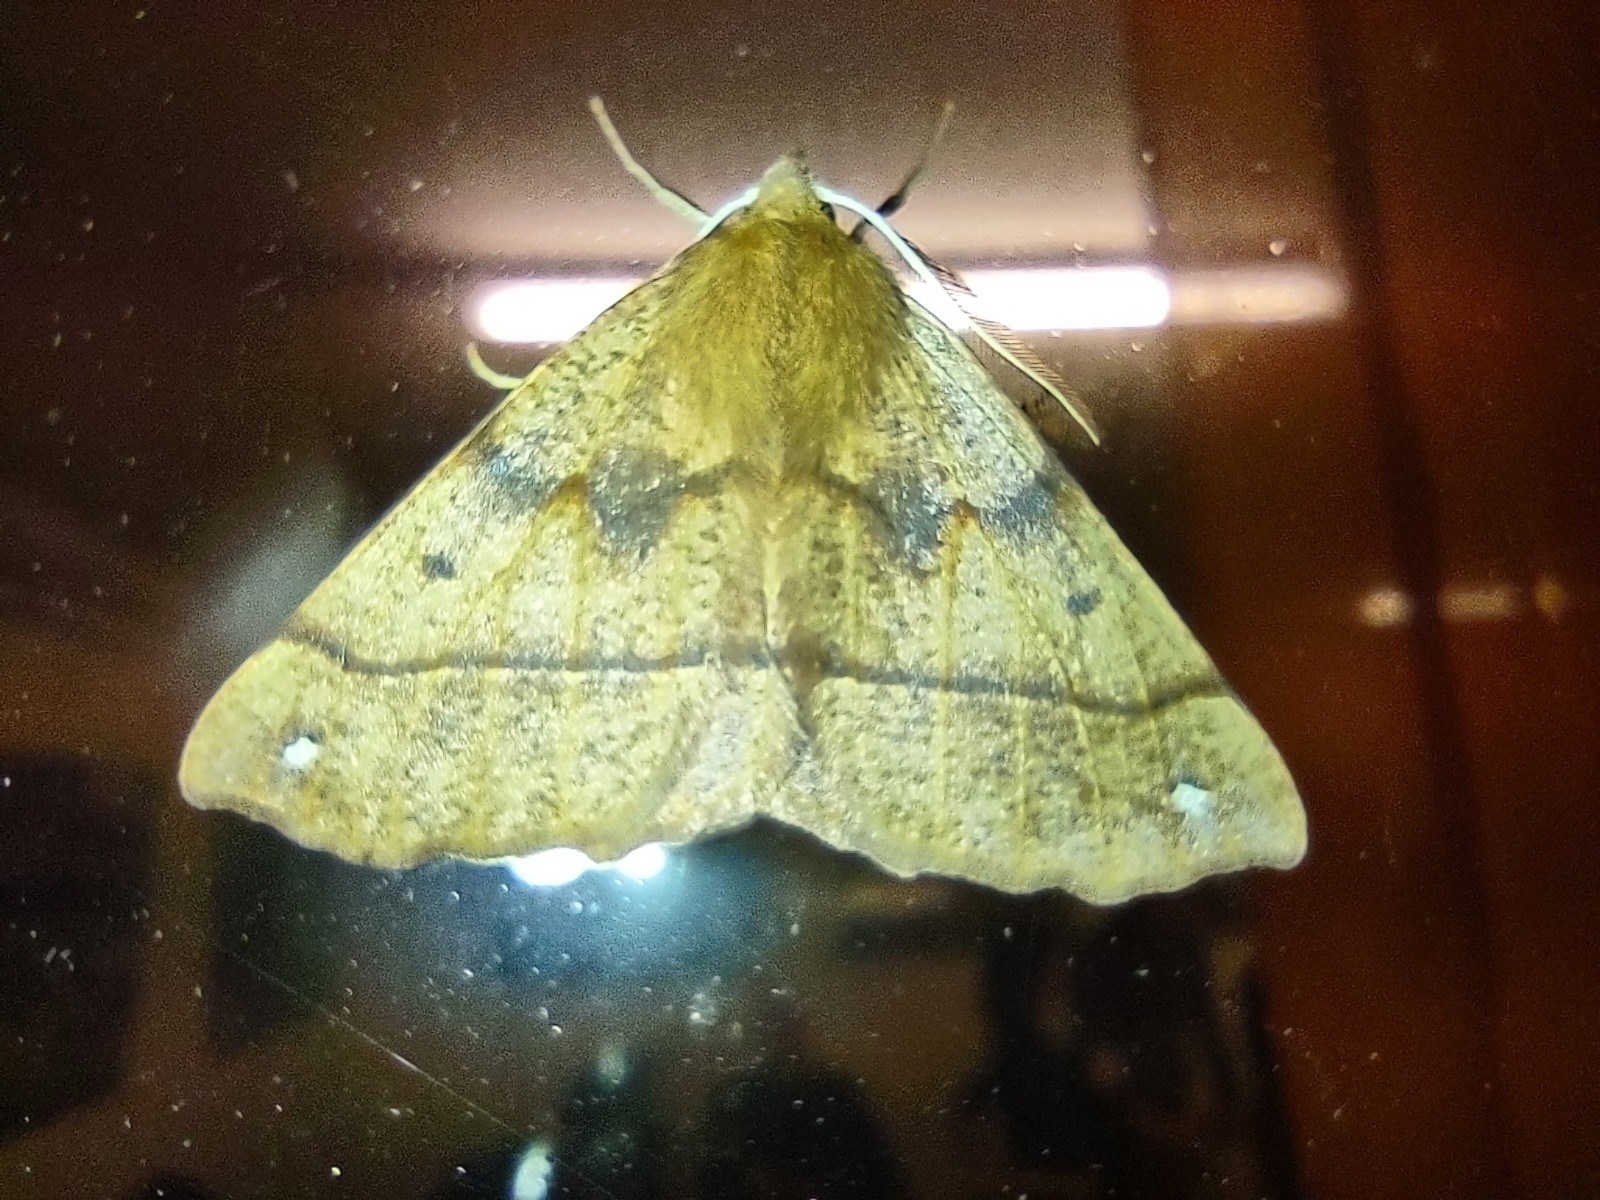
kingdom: Animalia
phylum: Arthropoda
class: Insecta
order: Lepidoptera
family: Geometridae
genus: Colotois
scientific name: Colotois pennaria
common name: Feathered thorn
